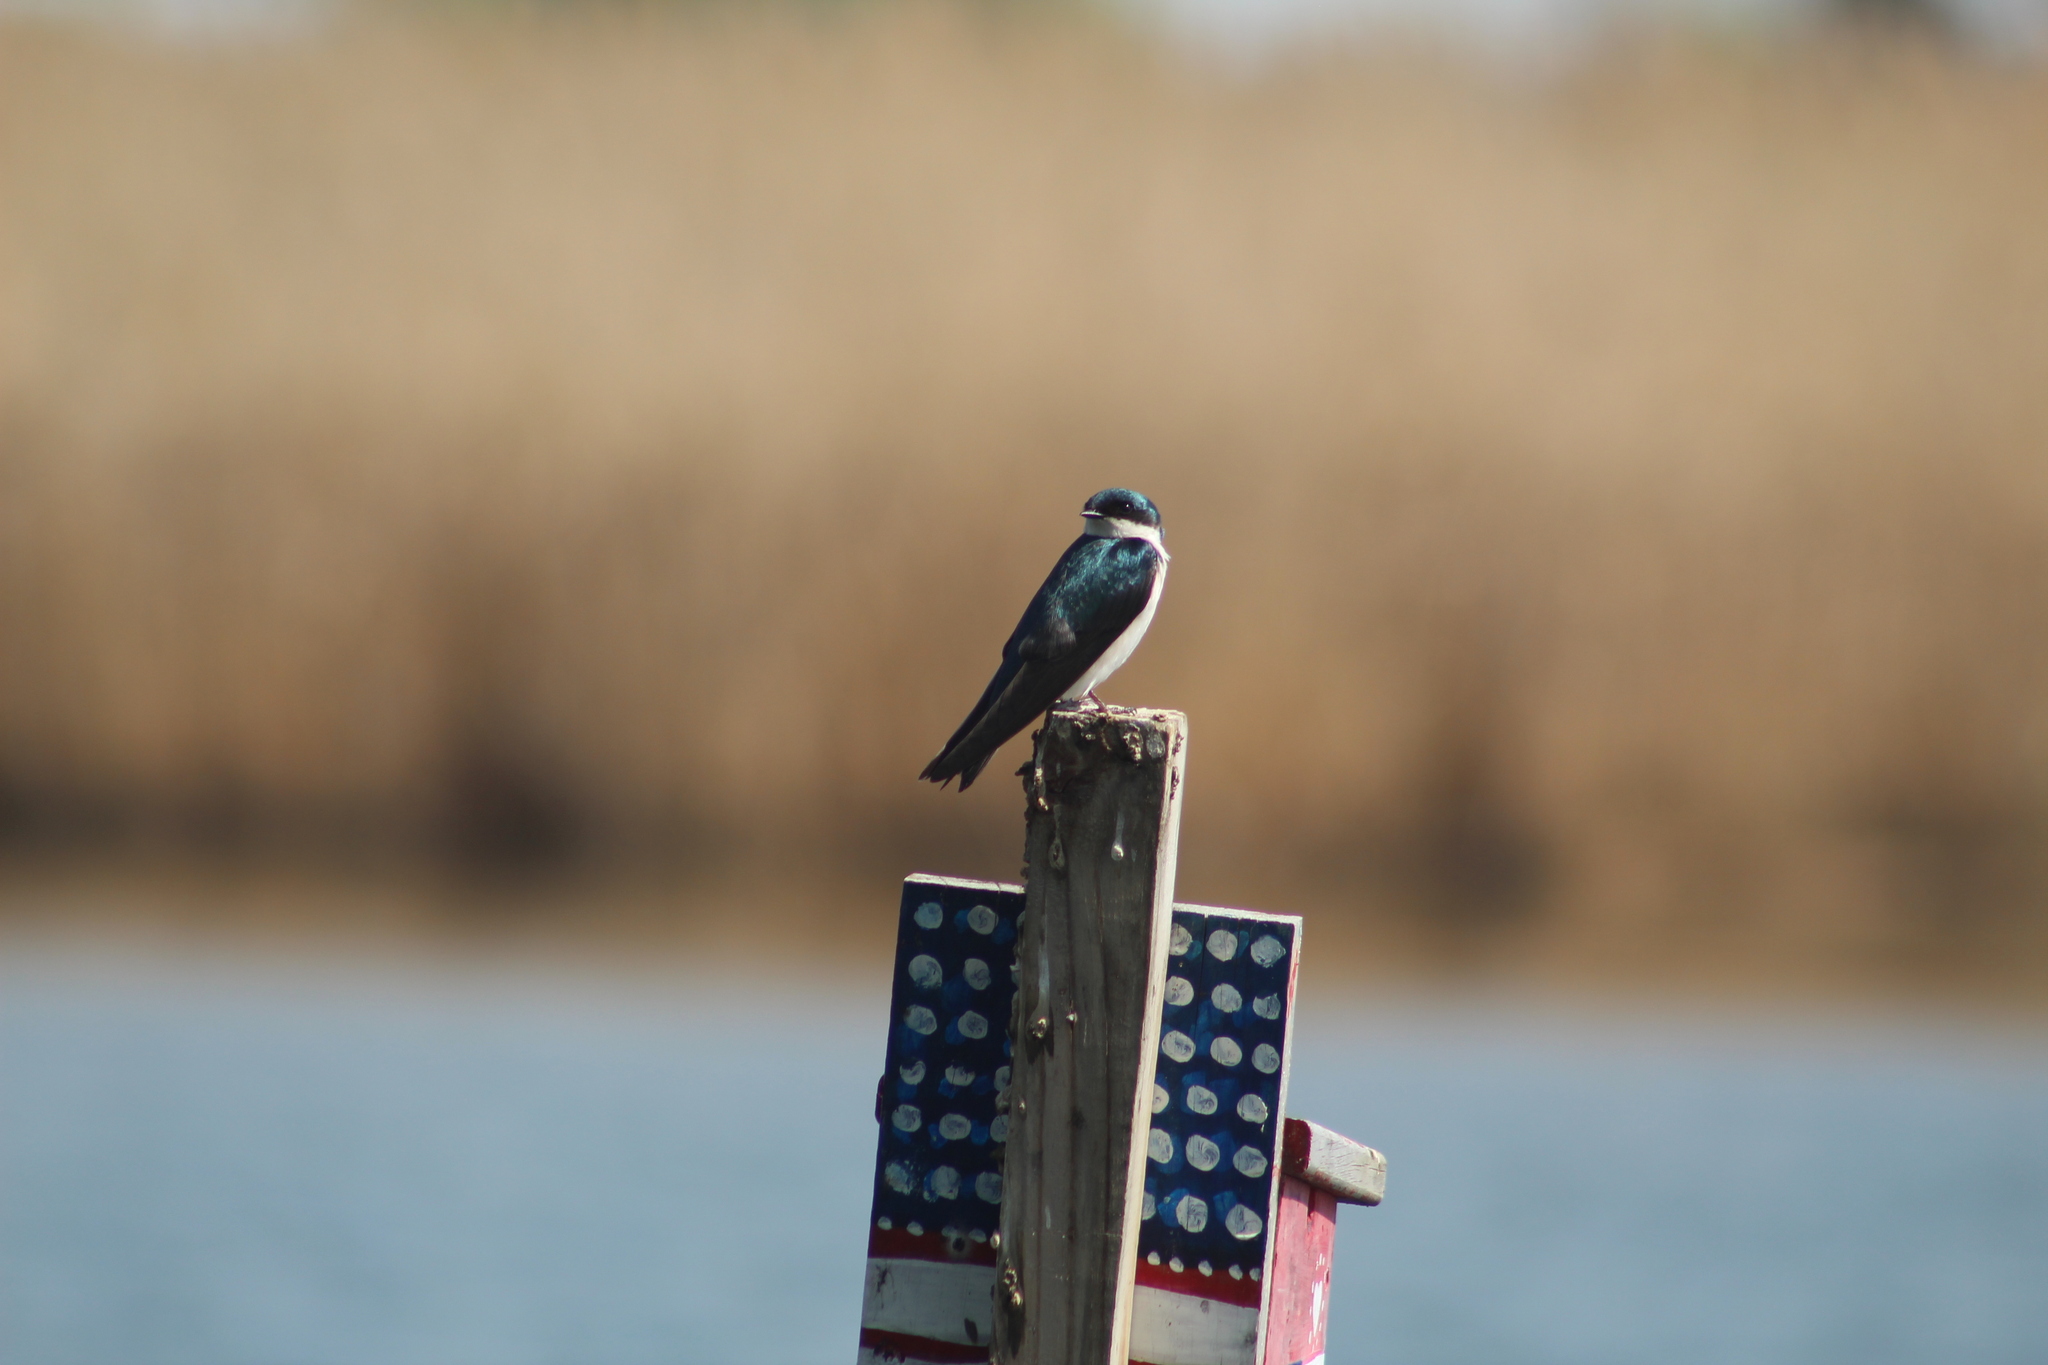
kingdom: Animalia
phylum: Chordata
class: Aves
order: Passeriformes
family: Hirundinidae
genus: Tachycineta
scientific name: Tachycineta bicolor
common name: Tree swallow
